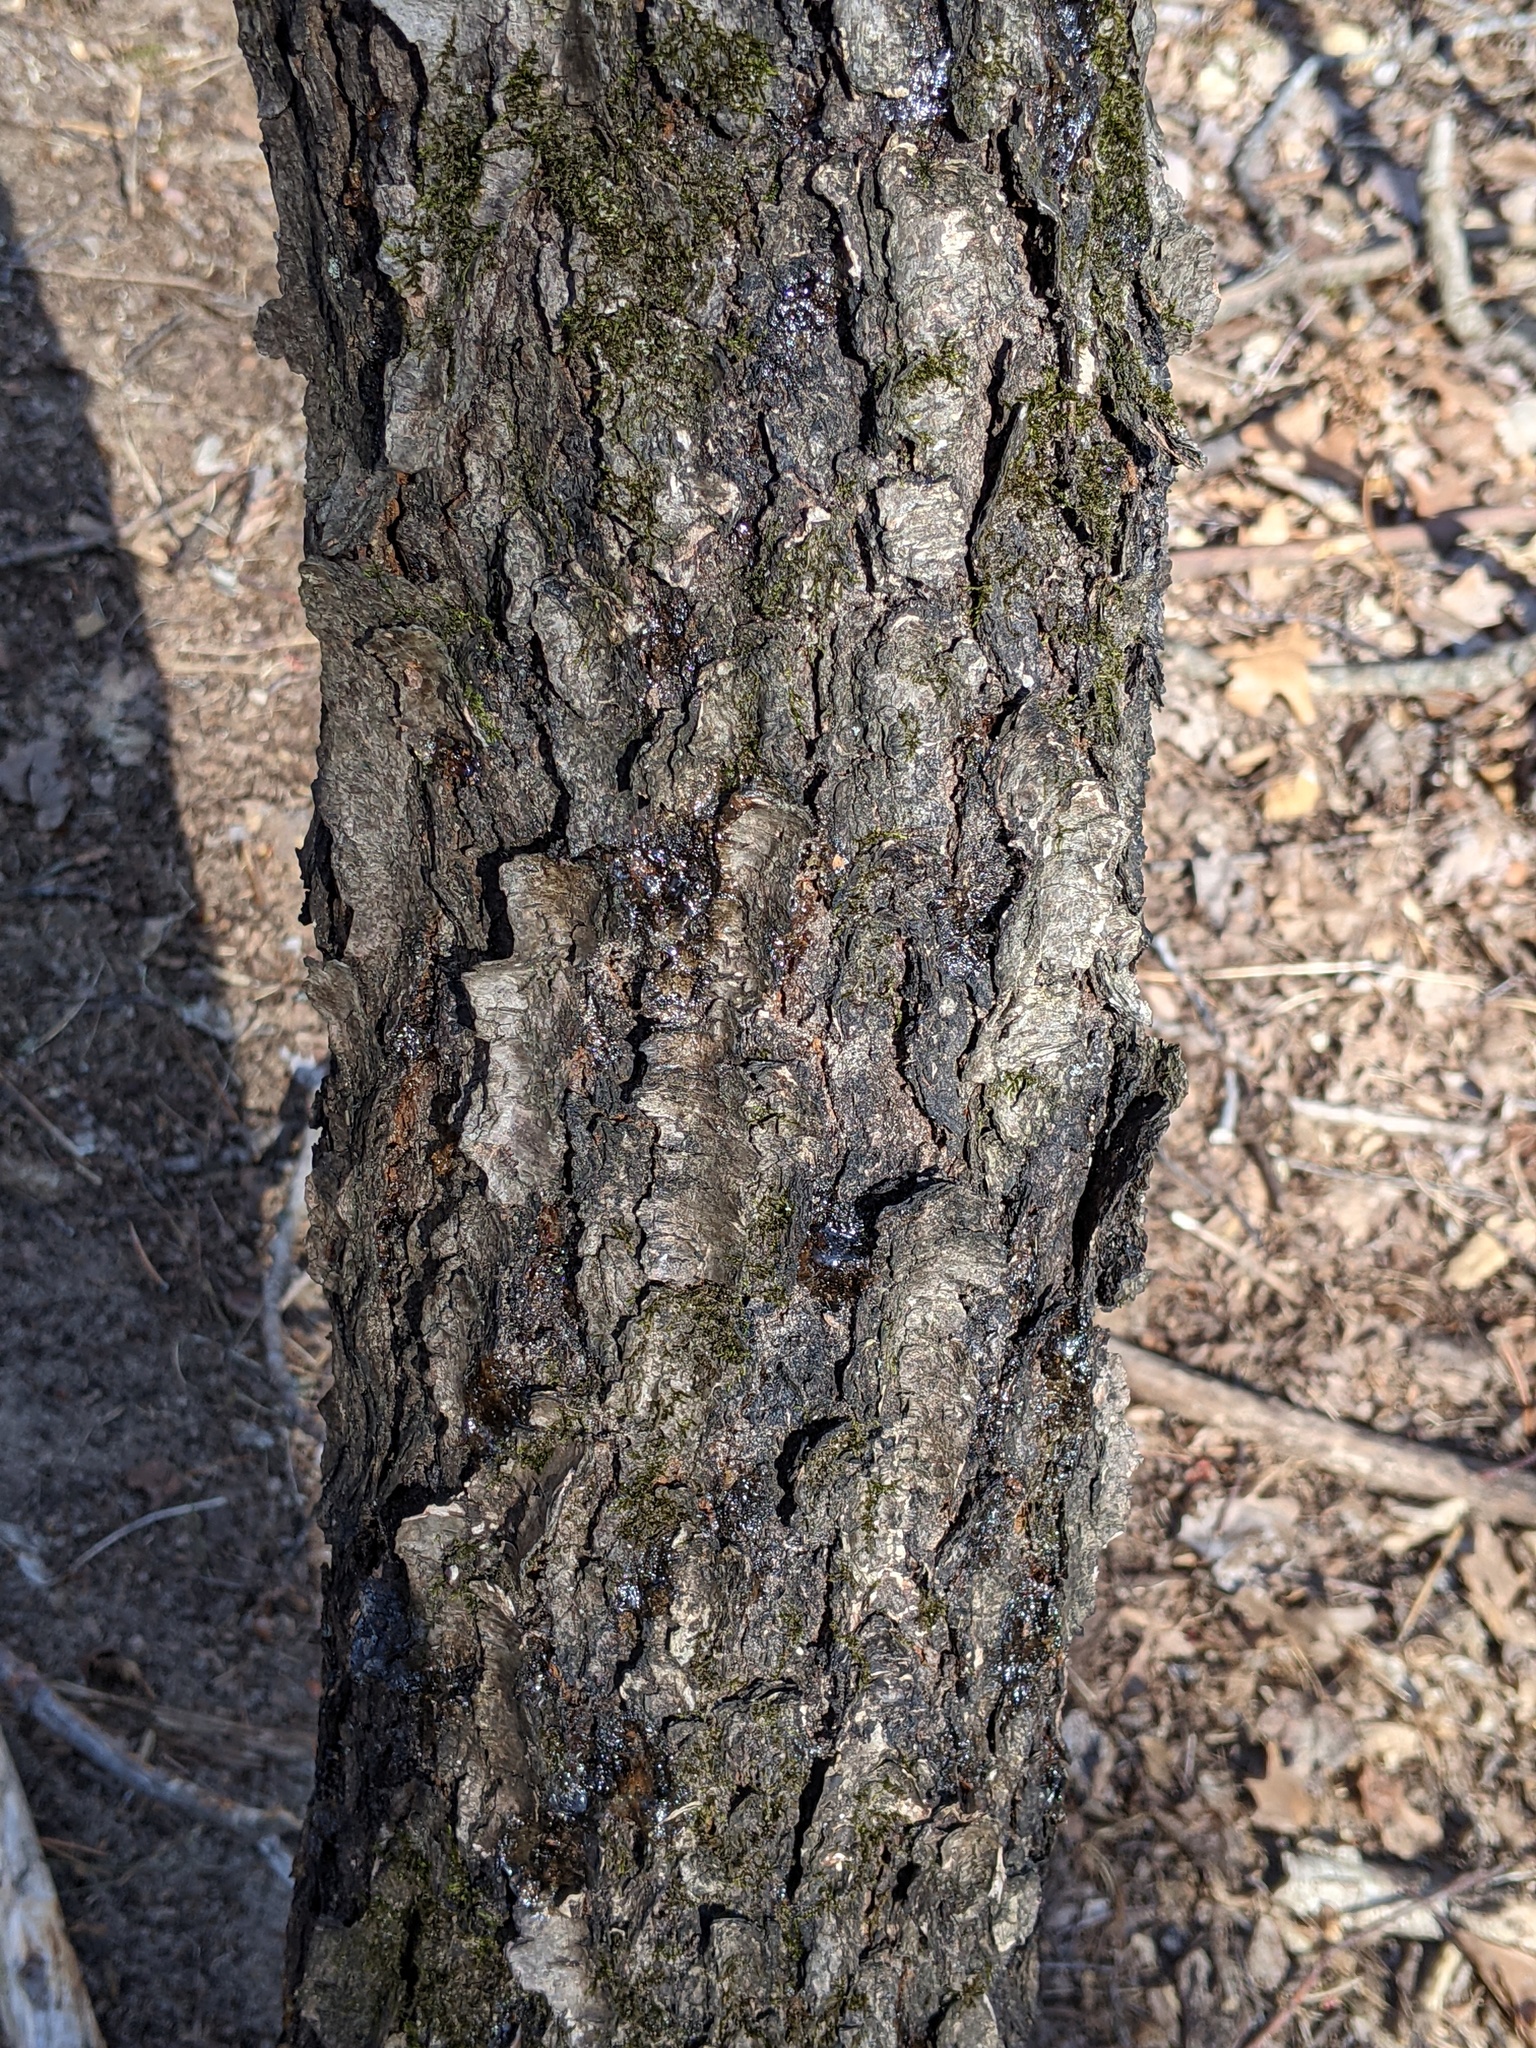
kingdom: Plantae
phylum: Tracheophyta
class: Magnoliopsida
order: Rosales
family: Rosaceae
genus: Prunus
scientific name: Prunus serotina
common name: Black cherry
